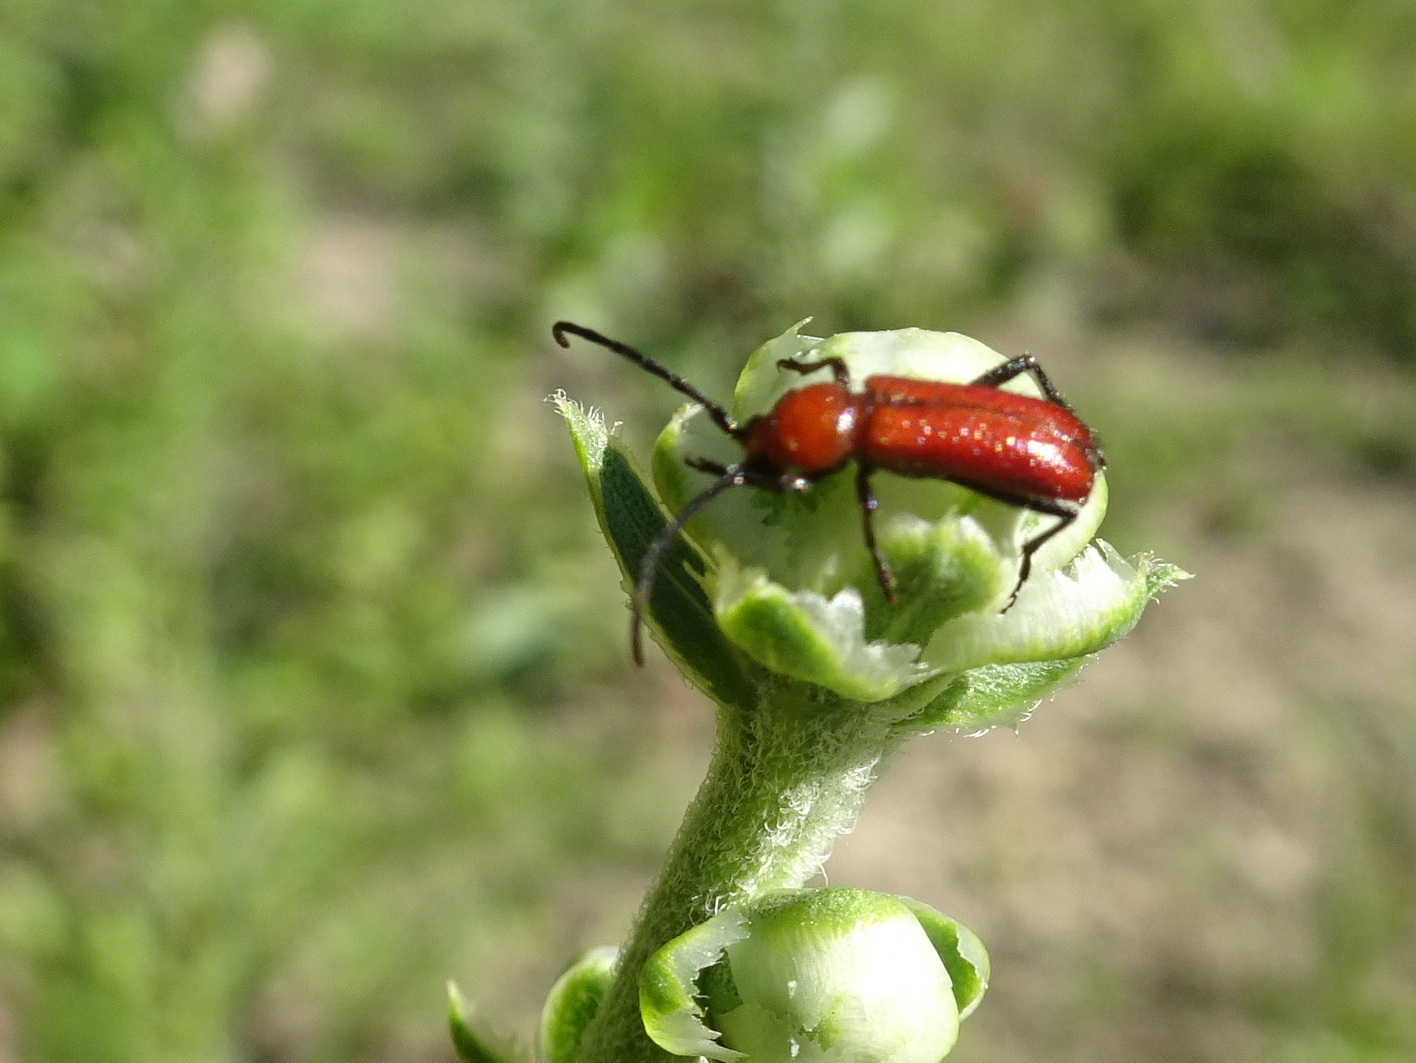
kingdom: Animalia
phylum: Arthropoda
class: Insecta
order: Coleoptera
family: Cerambycidae
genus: Batyle
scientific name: Batyle suturalis
